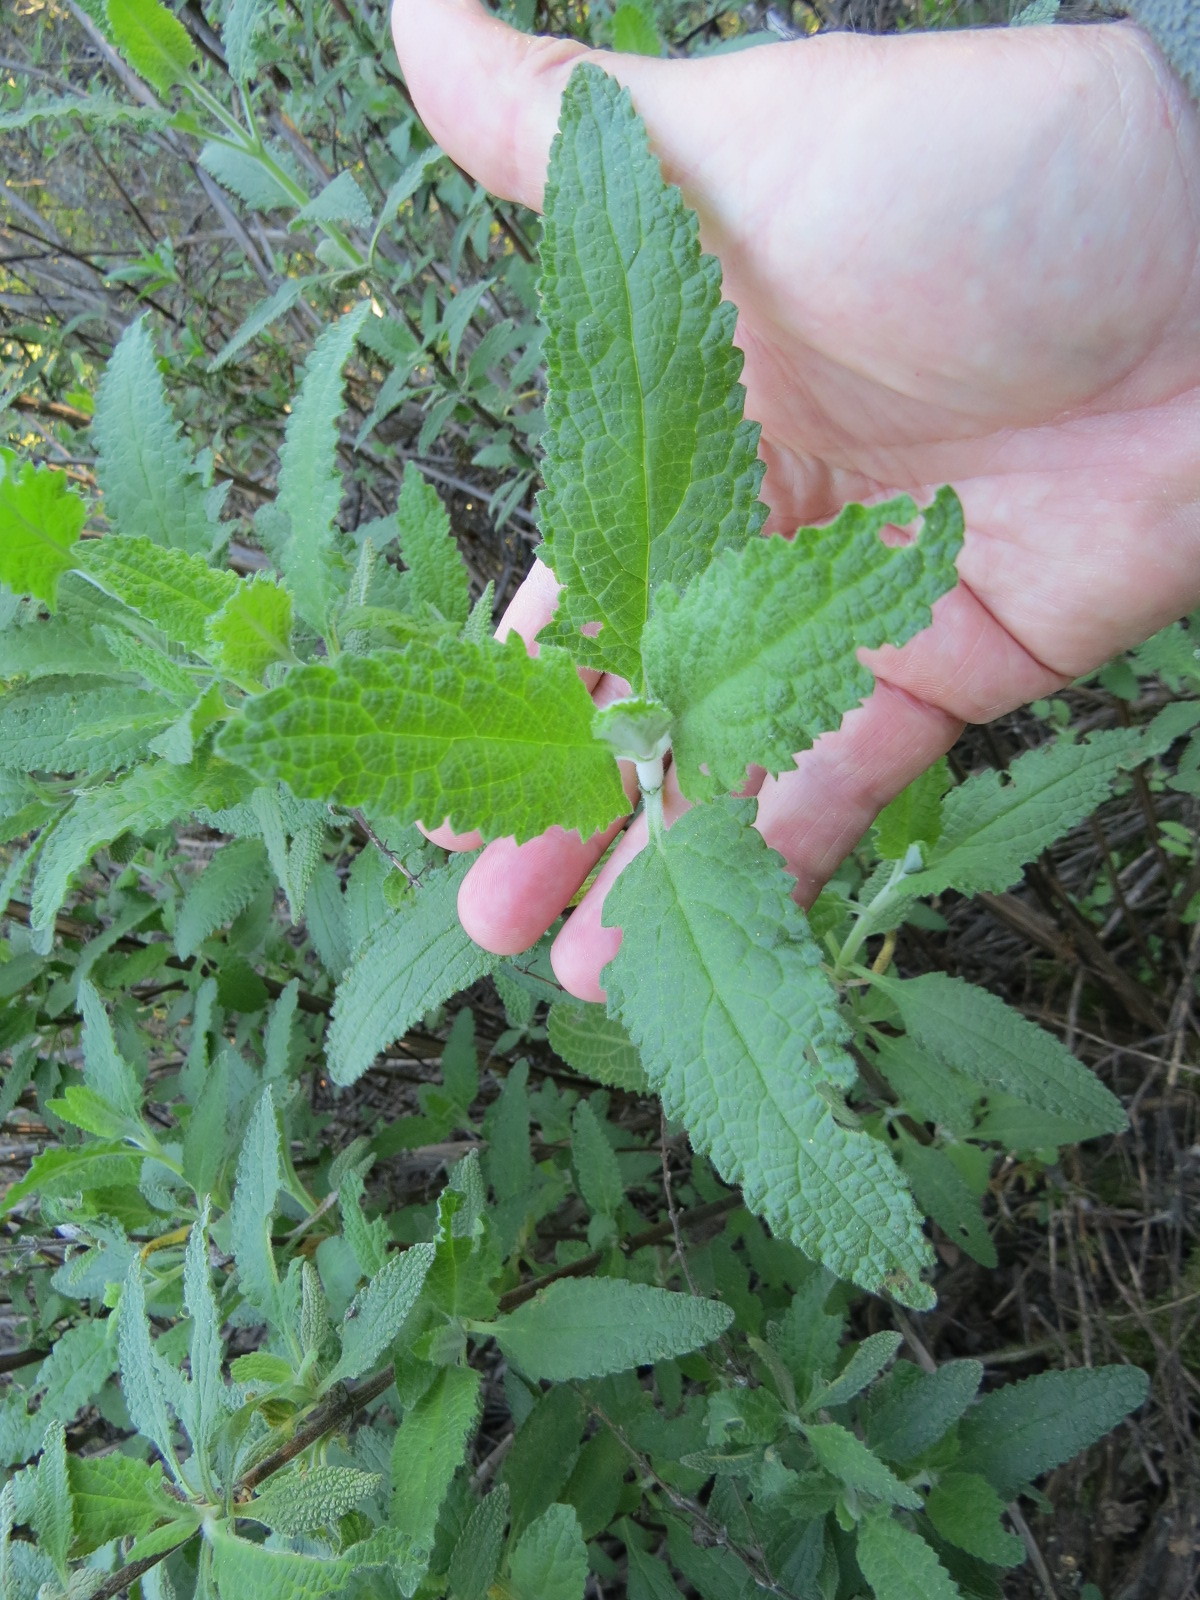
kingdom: Plantae
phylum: Tracheophyta
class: Magnoliopsida
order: Lamiales
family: Lamiaceae
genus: Lepechinia
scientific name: Lepechinia calycina
